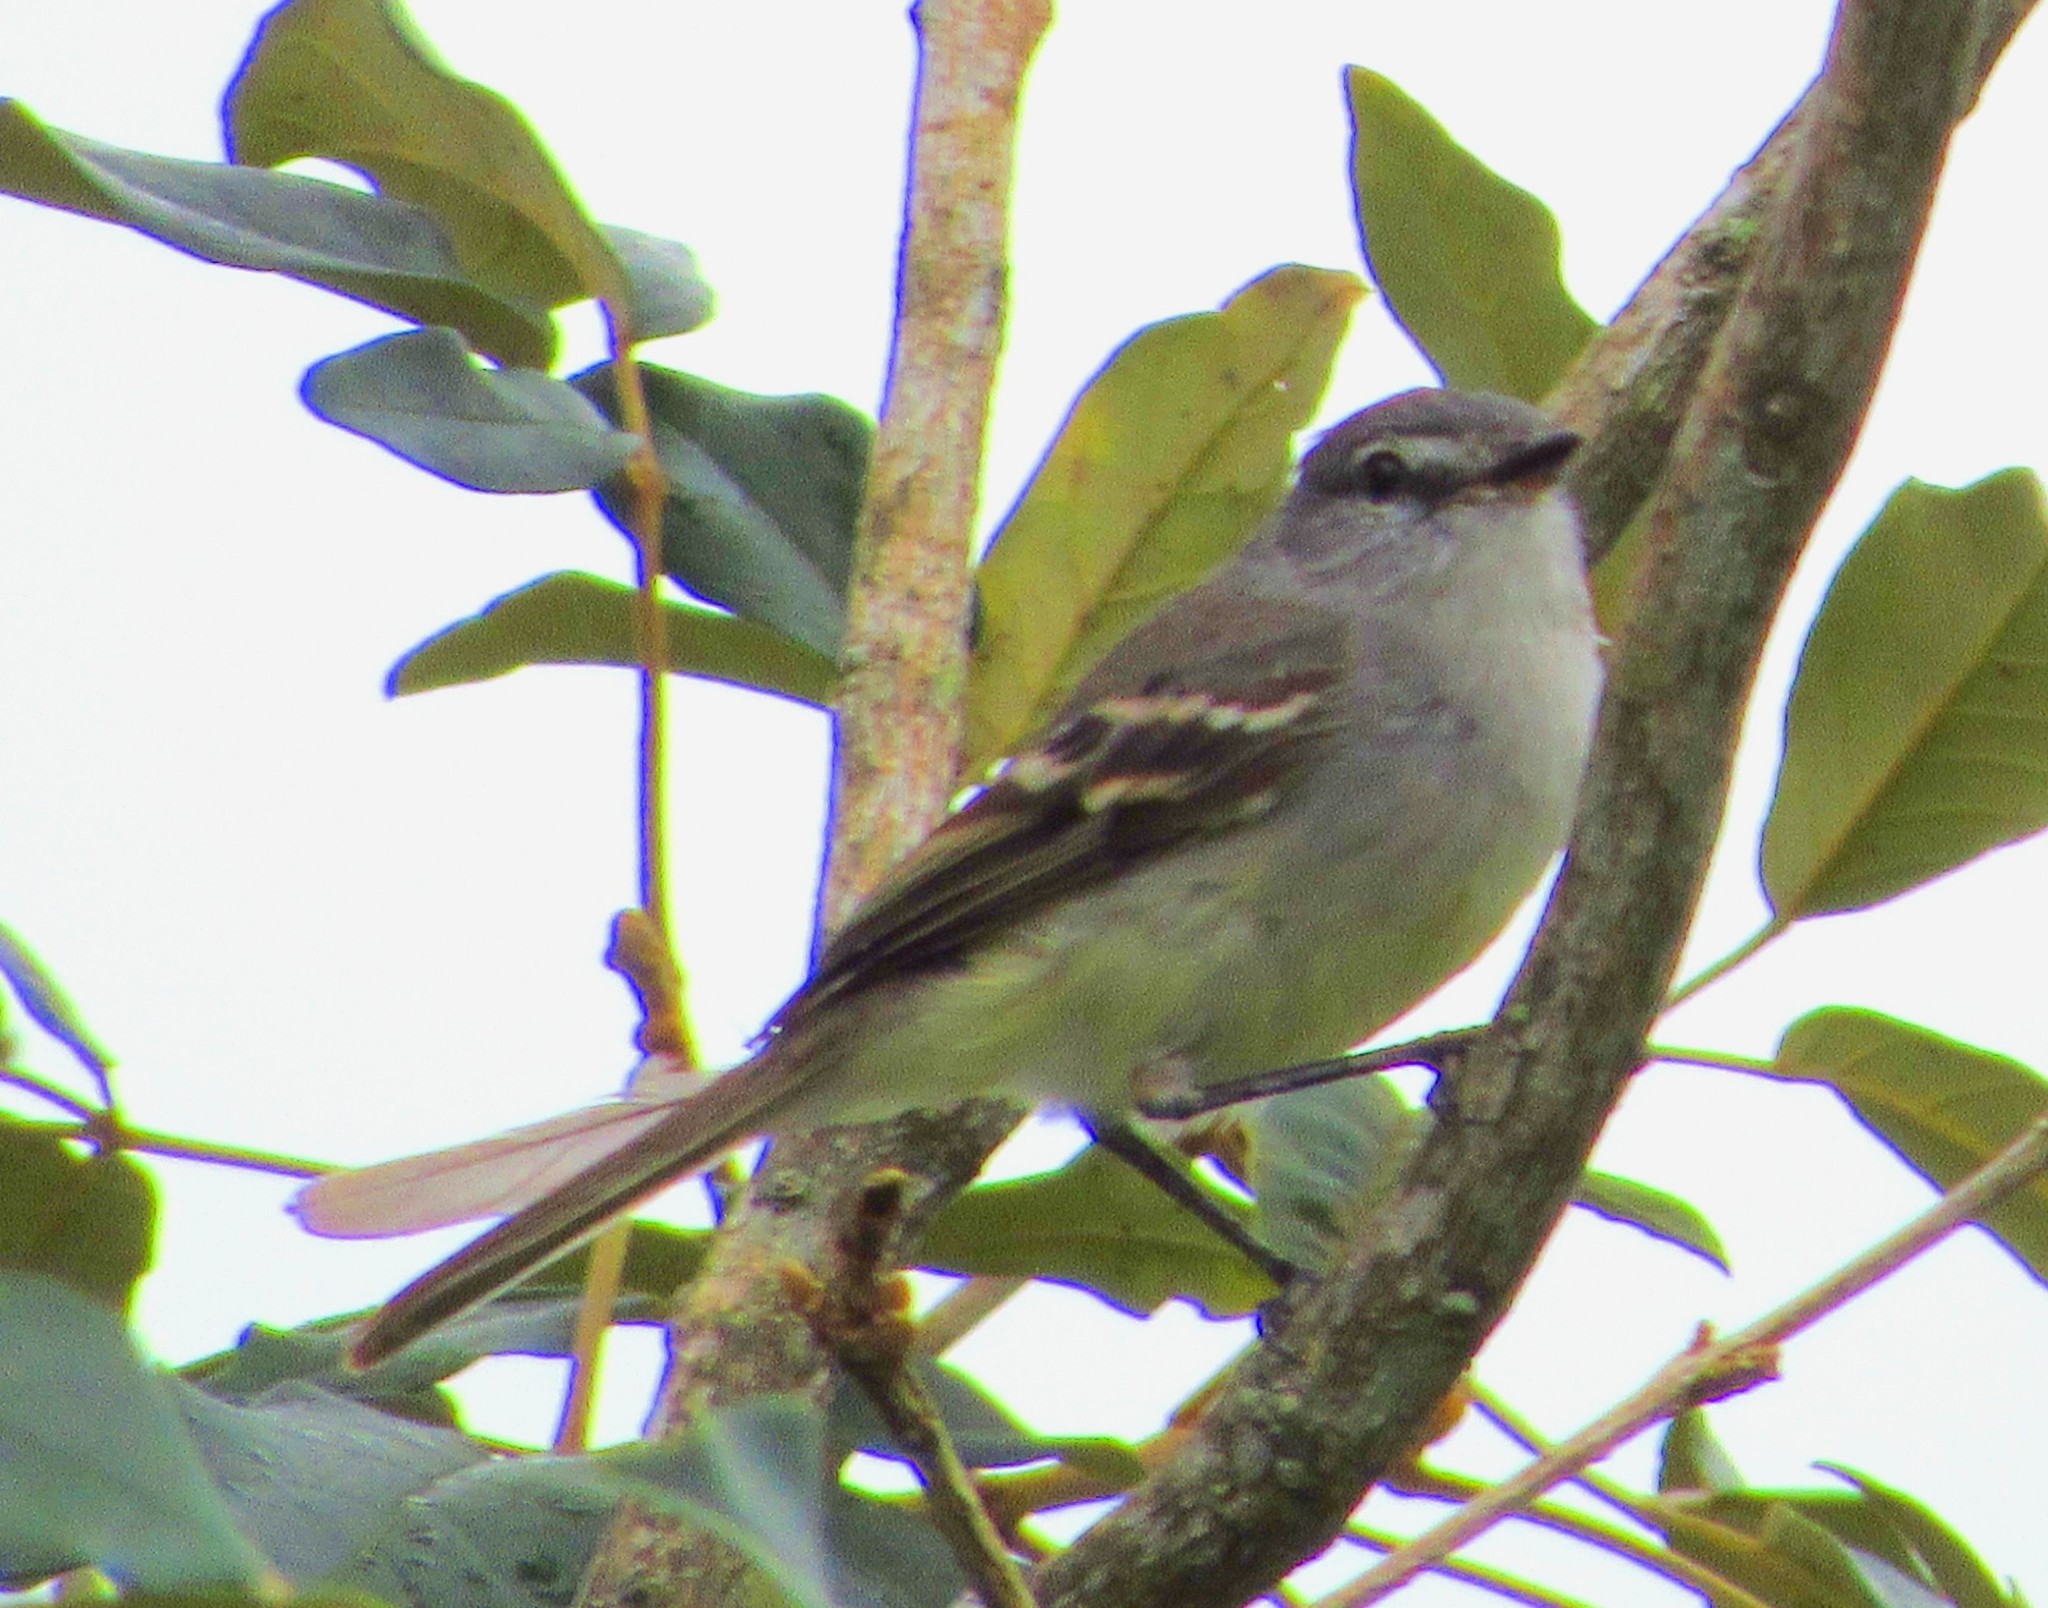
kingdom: Animalia
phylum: Chordata
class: Aves
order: Passeriformes
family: Tyrannidae
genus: Camptostoma
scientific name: Camptostoma obsoletum
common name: Southern beardless-tyrannulet
